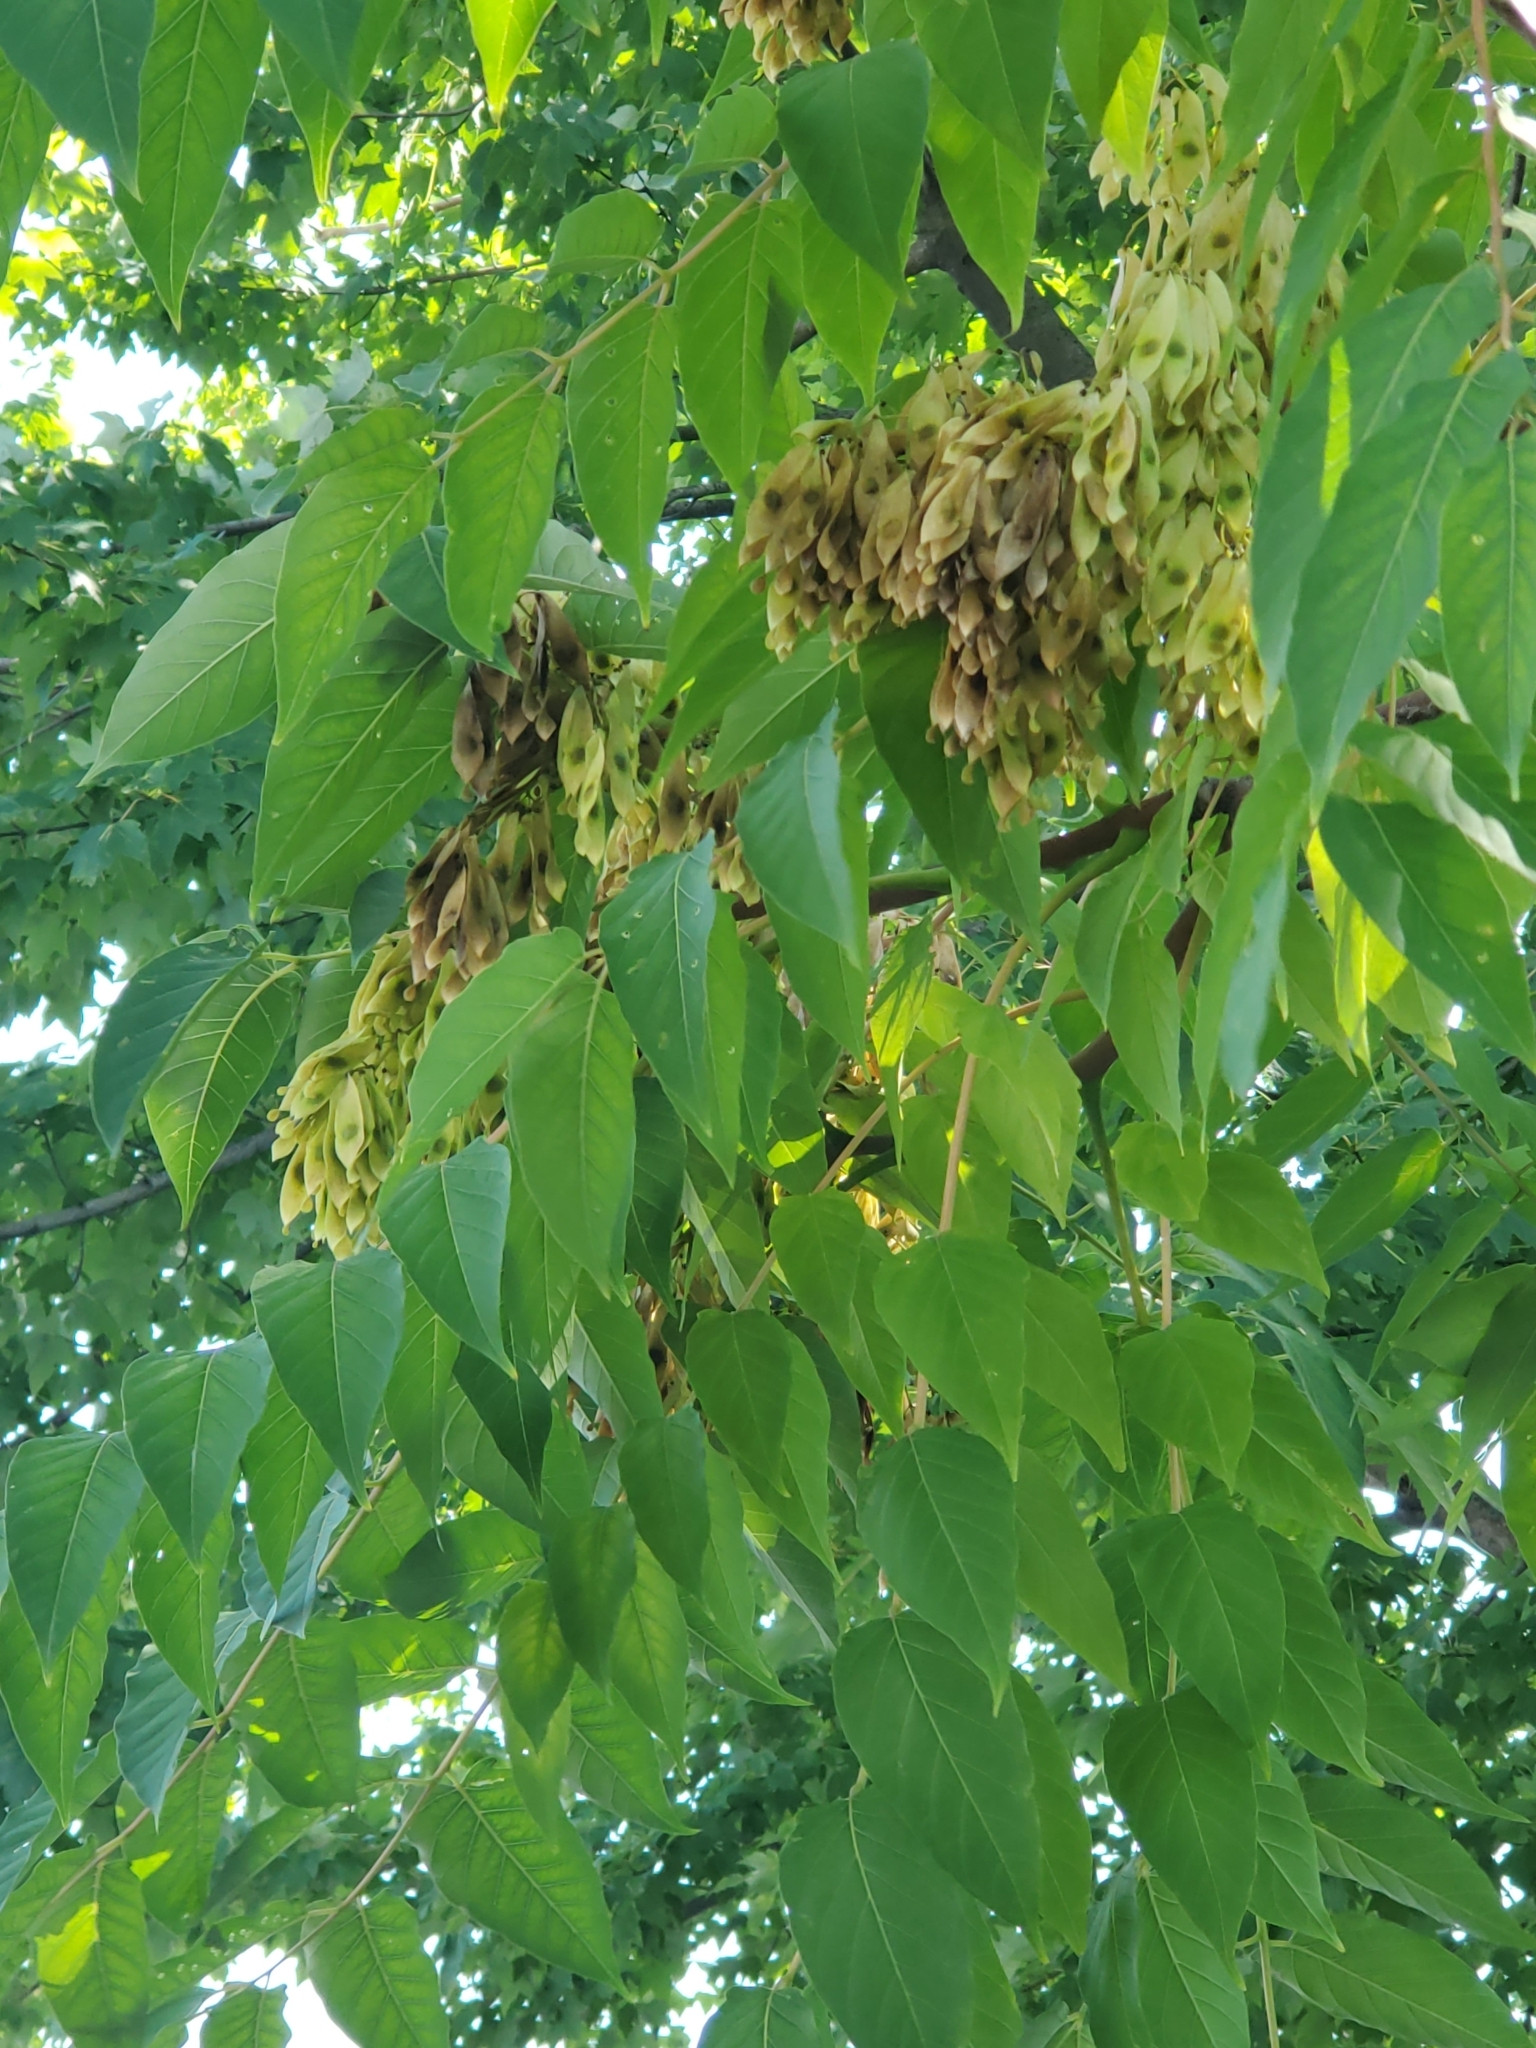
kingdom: Plantae
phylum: Tracheophyta
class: Magnoliopsida
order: Sapindales
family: Simaroubaceae
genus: Ailanthus
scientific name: Ailanthus altissima
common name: Tree-of-heaven
